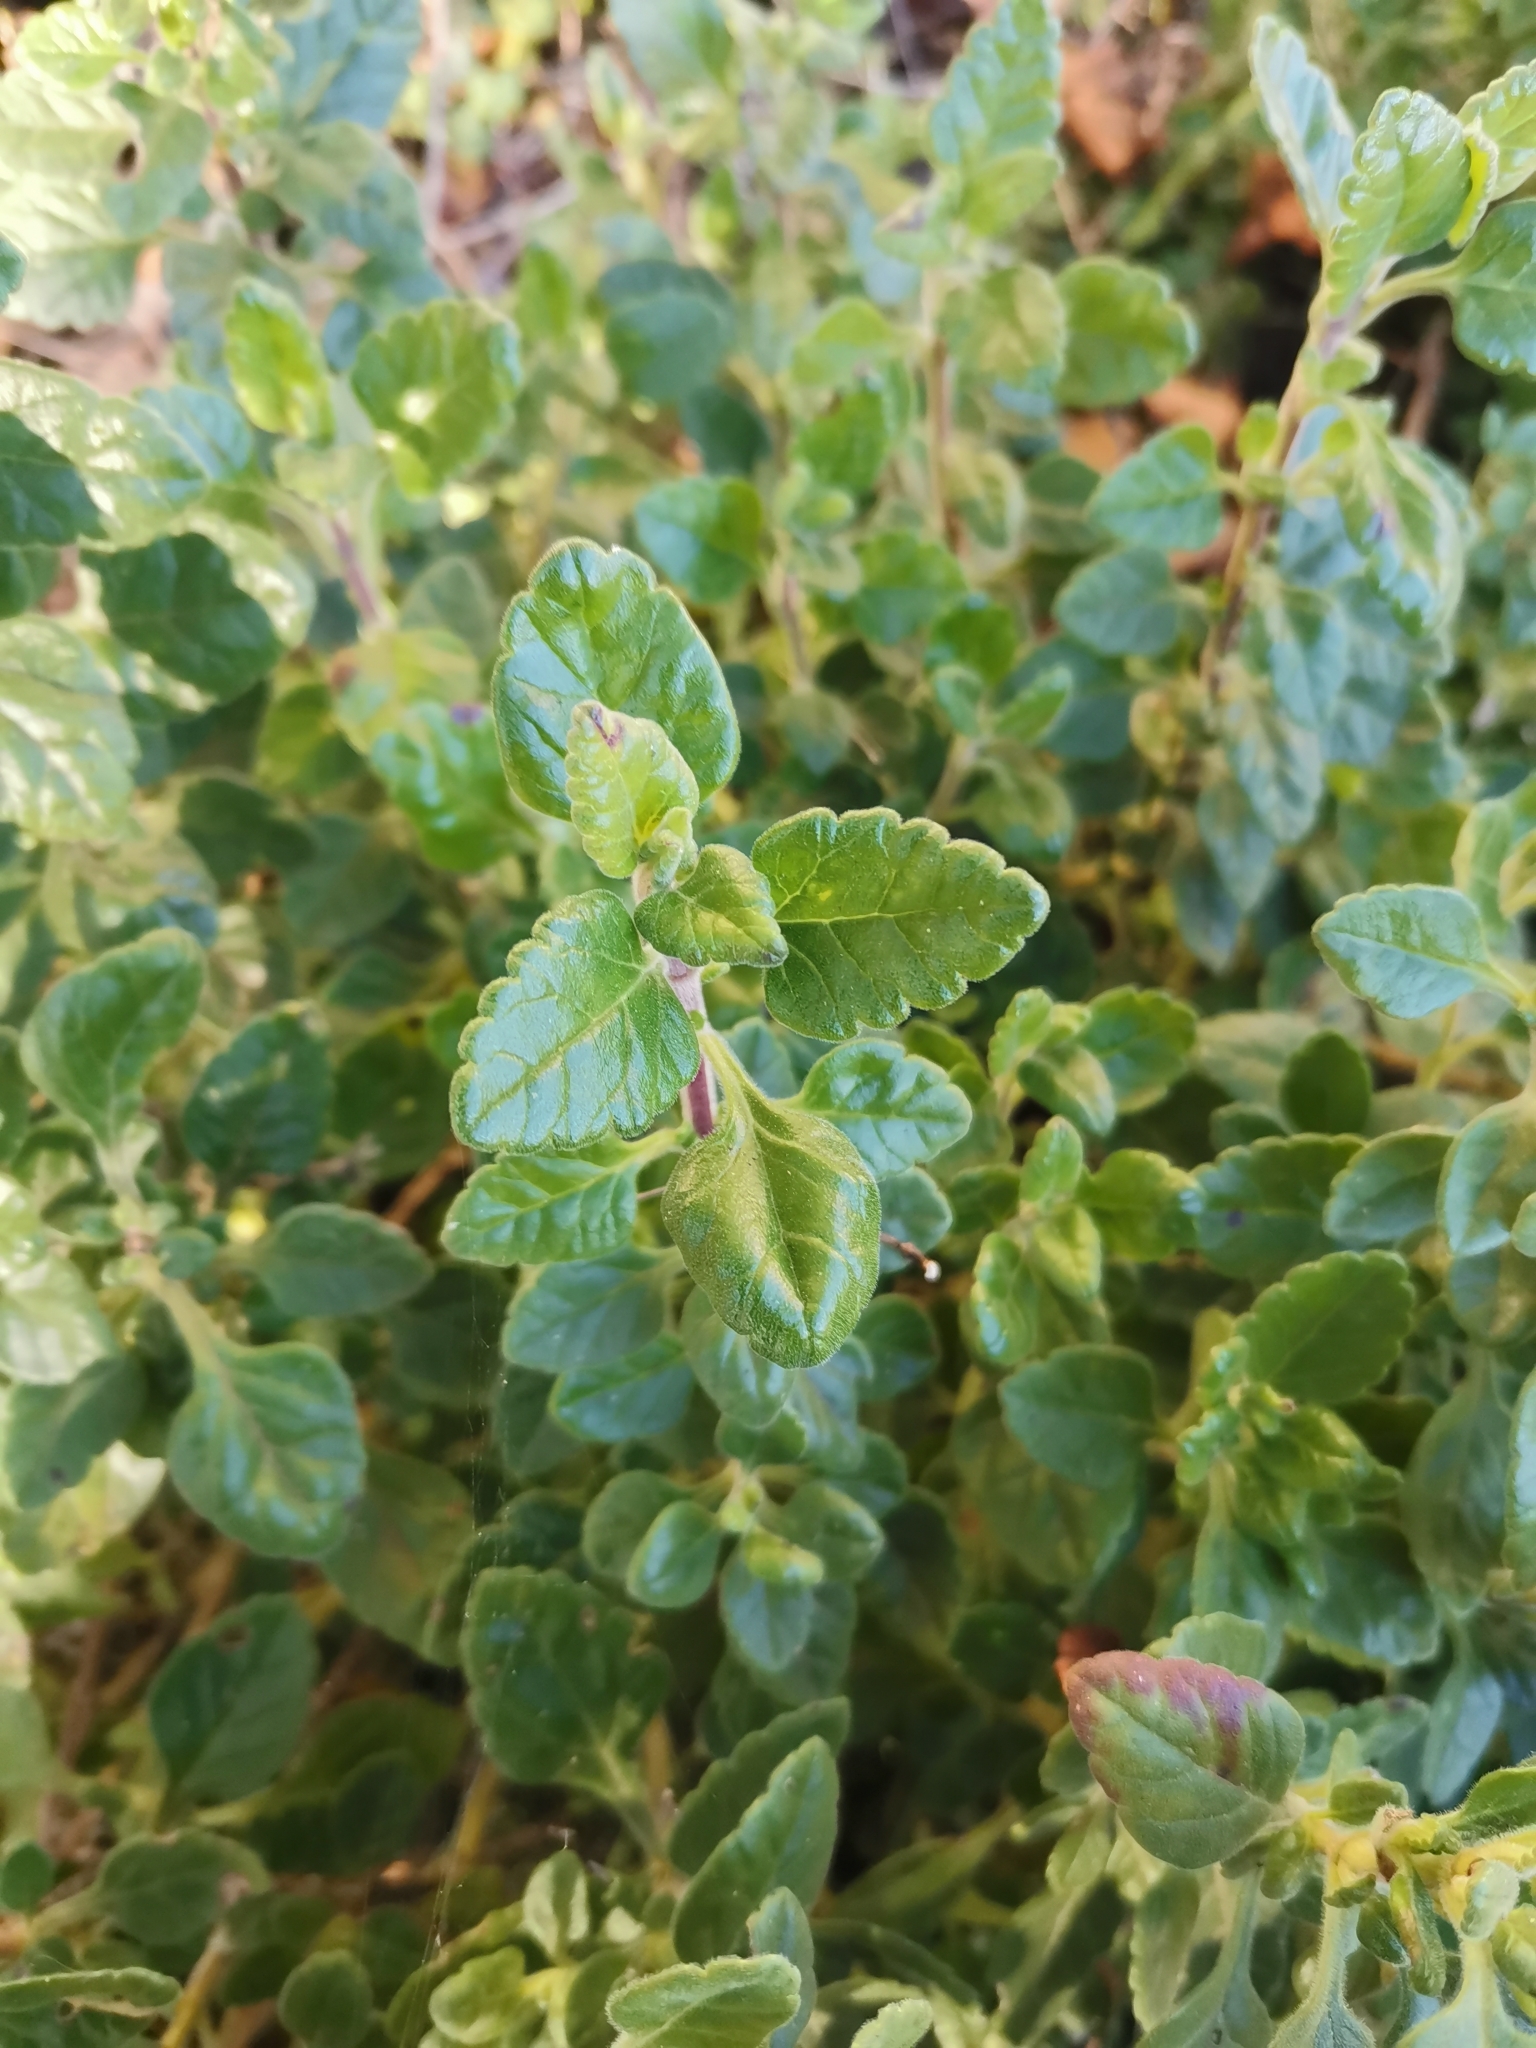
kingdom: Plantae
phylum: Tracheophyta
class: Magnoliopsida
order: Lamiales
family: Lamiaceae
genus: Teucrium
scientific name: Teucrium flavum
